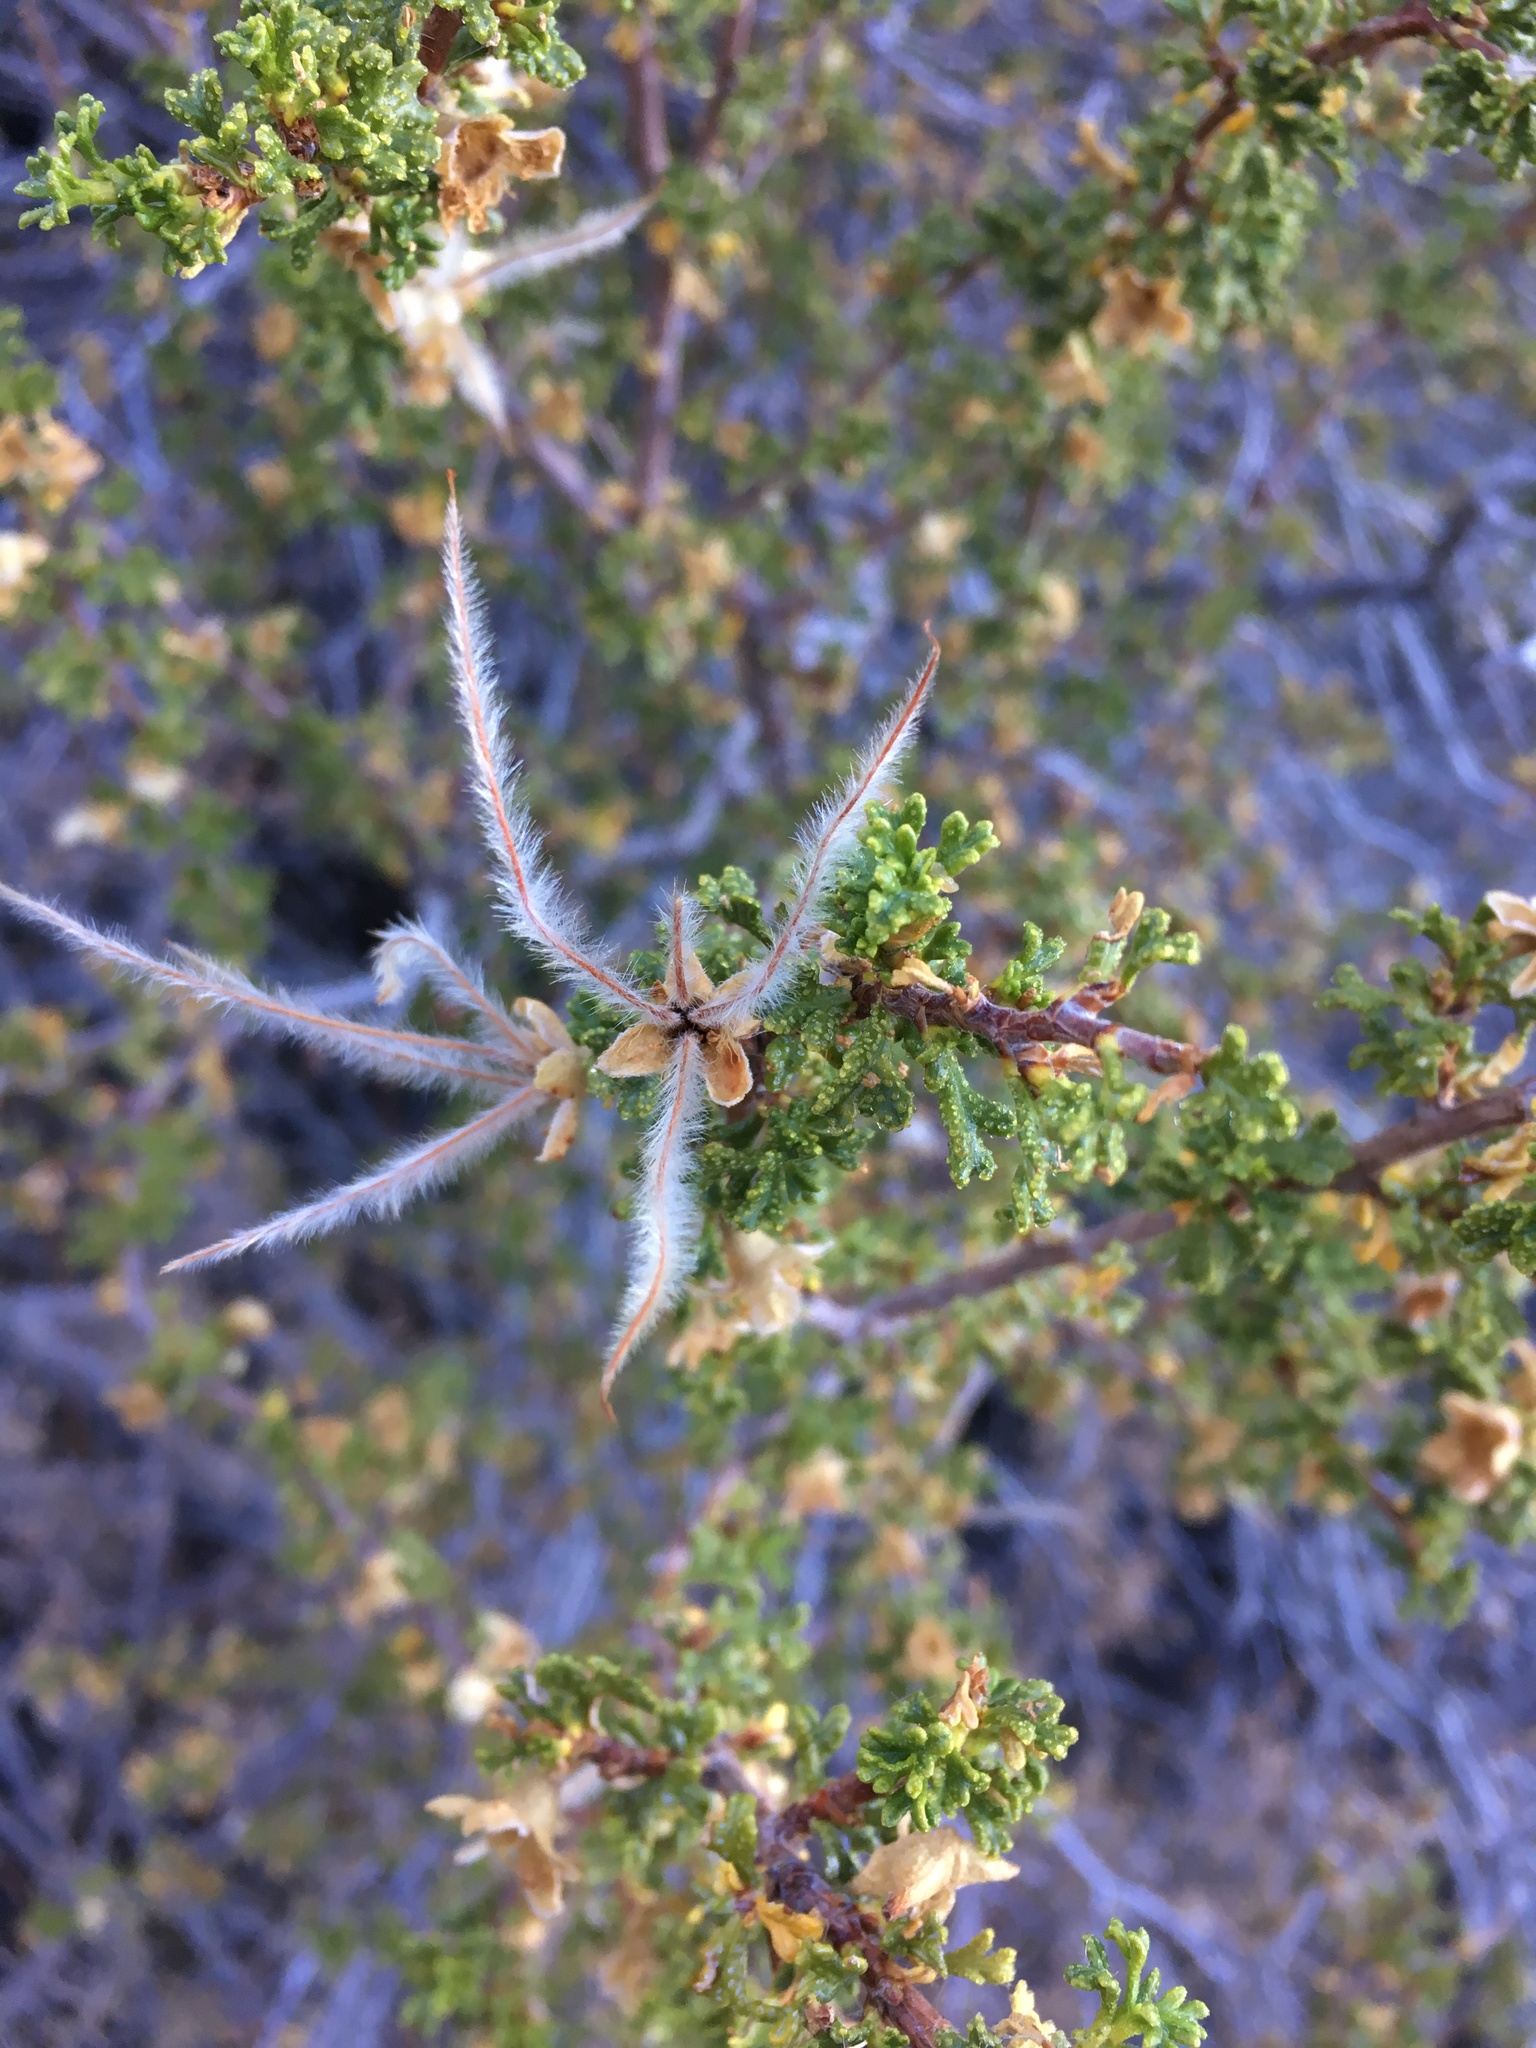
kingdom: Plantae
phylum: Tracheophyta
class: Magnoliopsida
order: Rosales
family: Rosaceae
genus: Purshia
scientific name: Purshia stansburiana
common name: Stansbury's cliffrose
